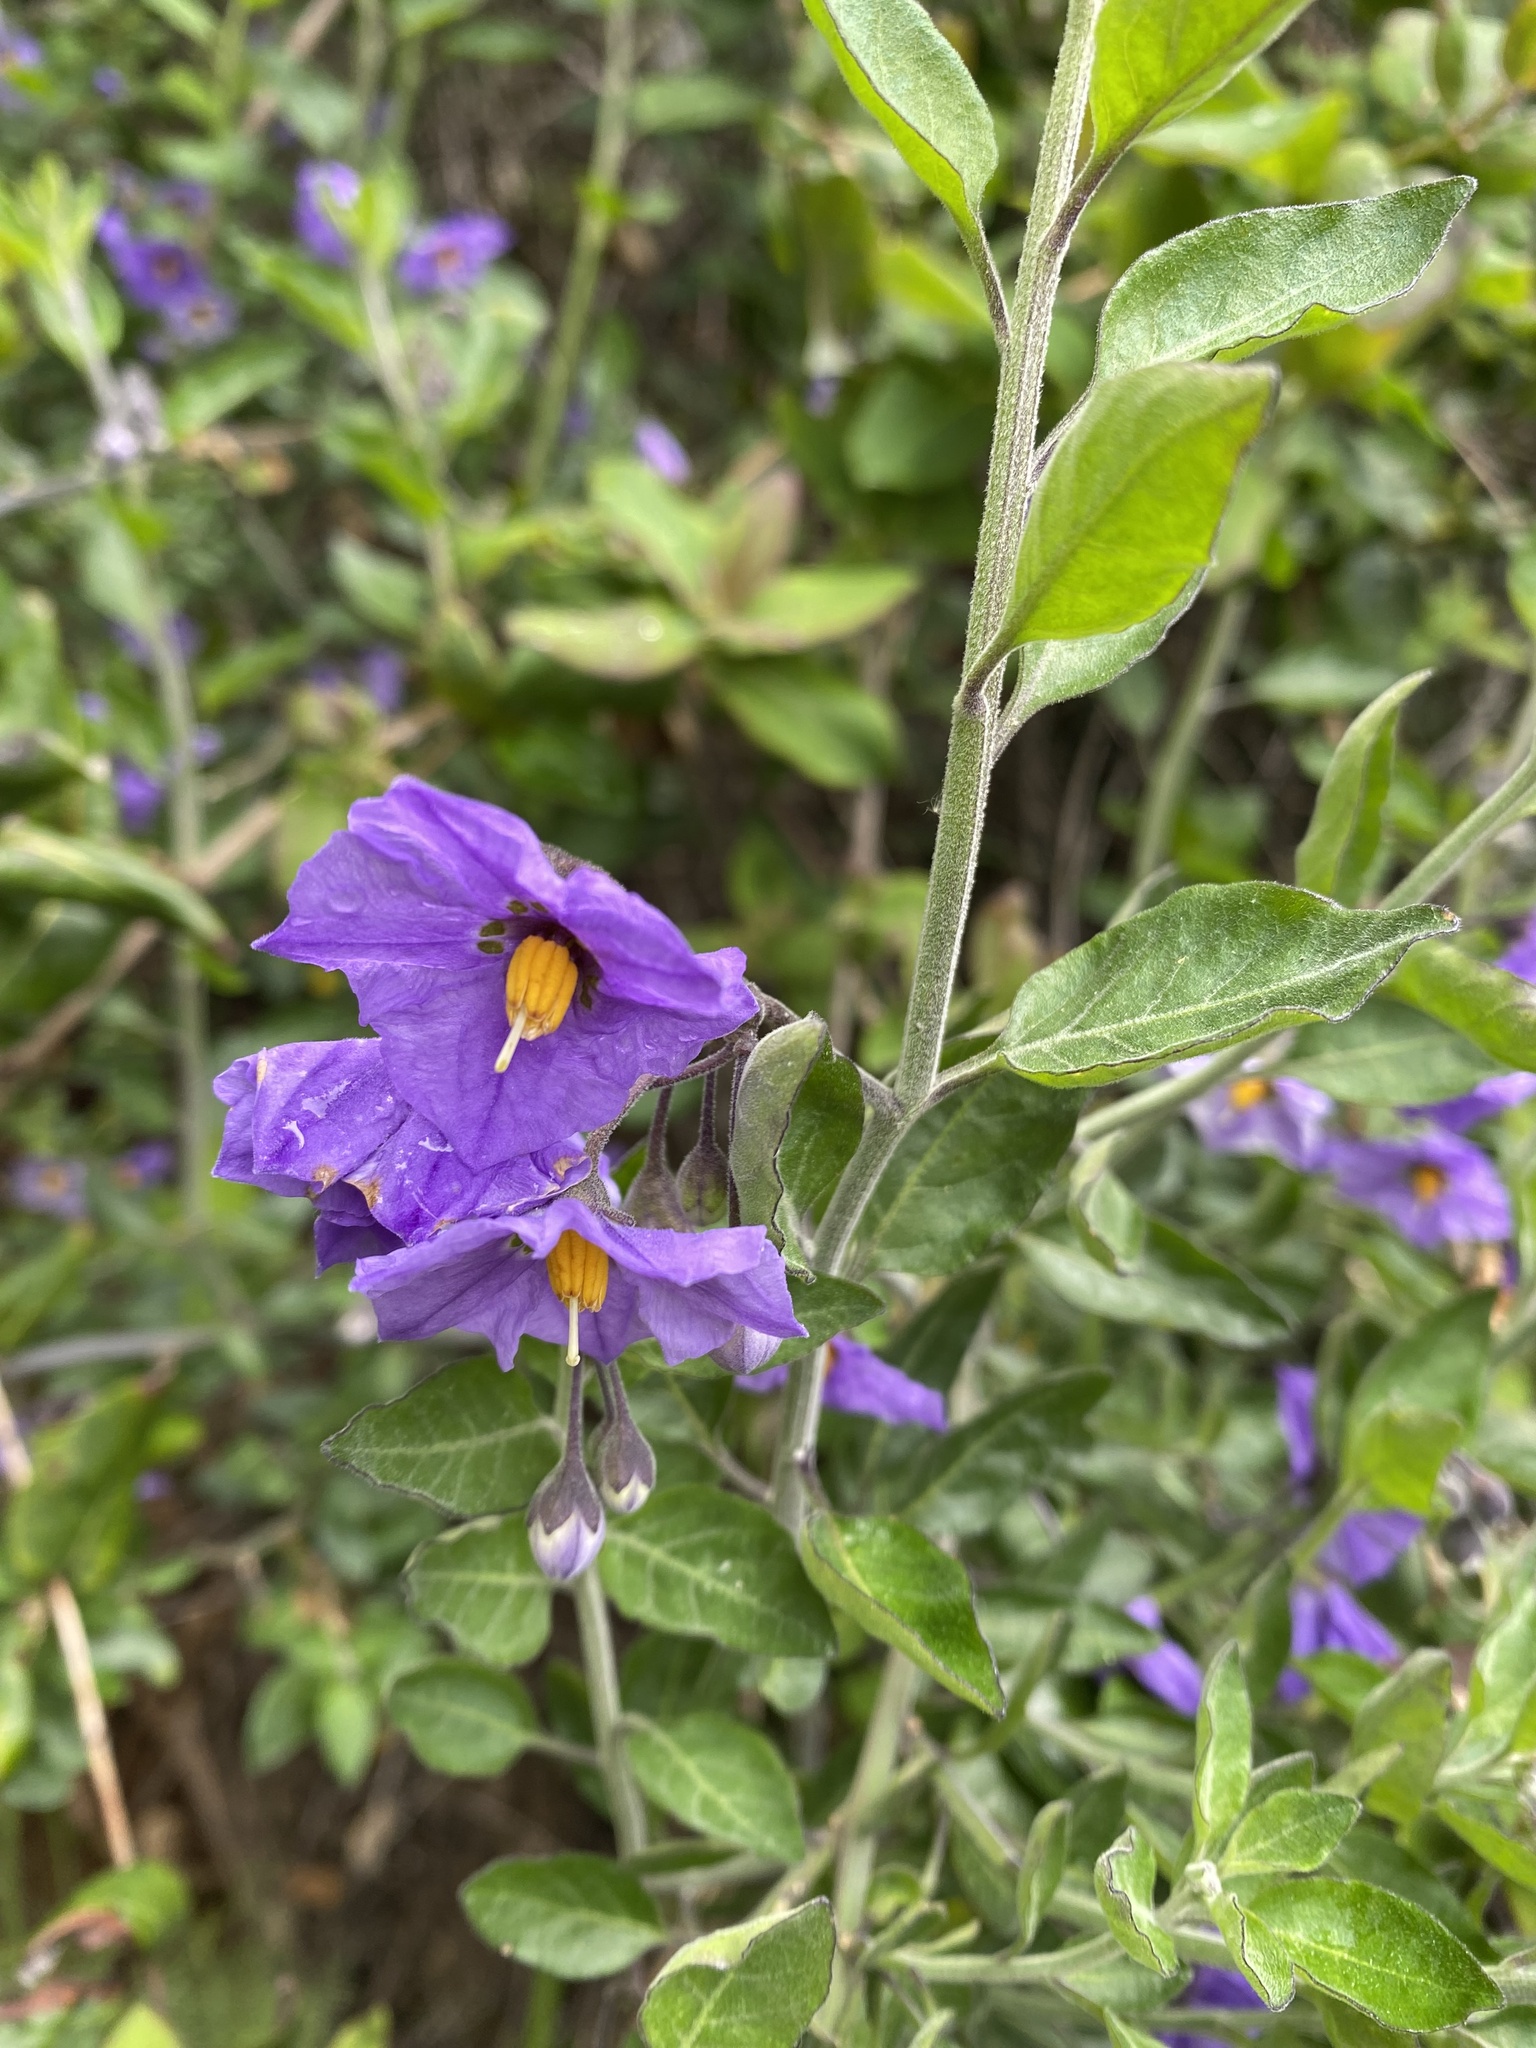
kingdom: Plantae
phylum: Tracheophyta
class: Magnoliopsida
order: Solanales
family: Solanaceae
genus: Solanum
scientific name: Solanum umbelliferum
